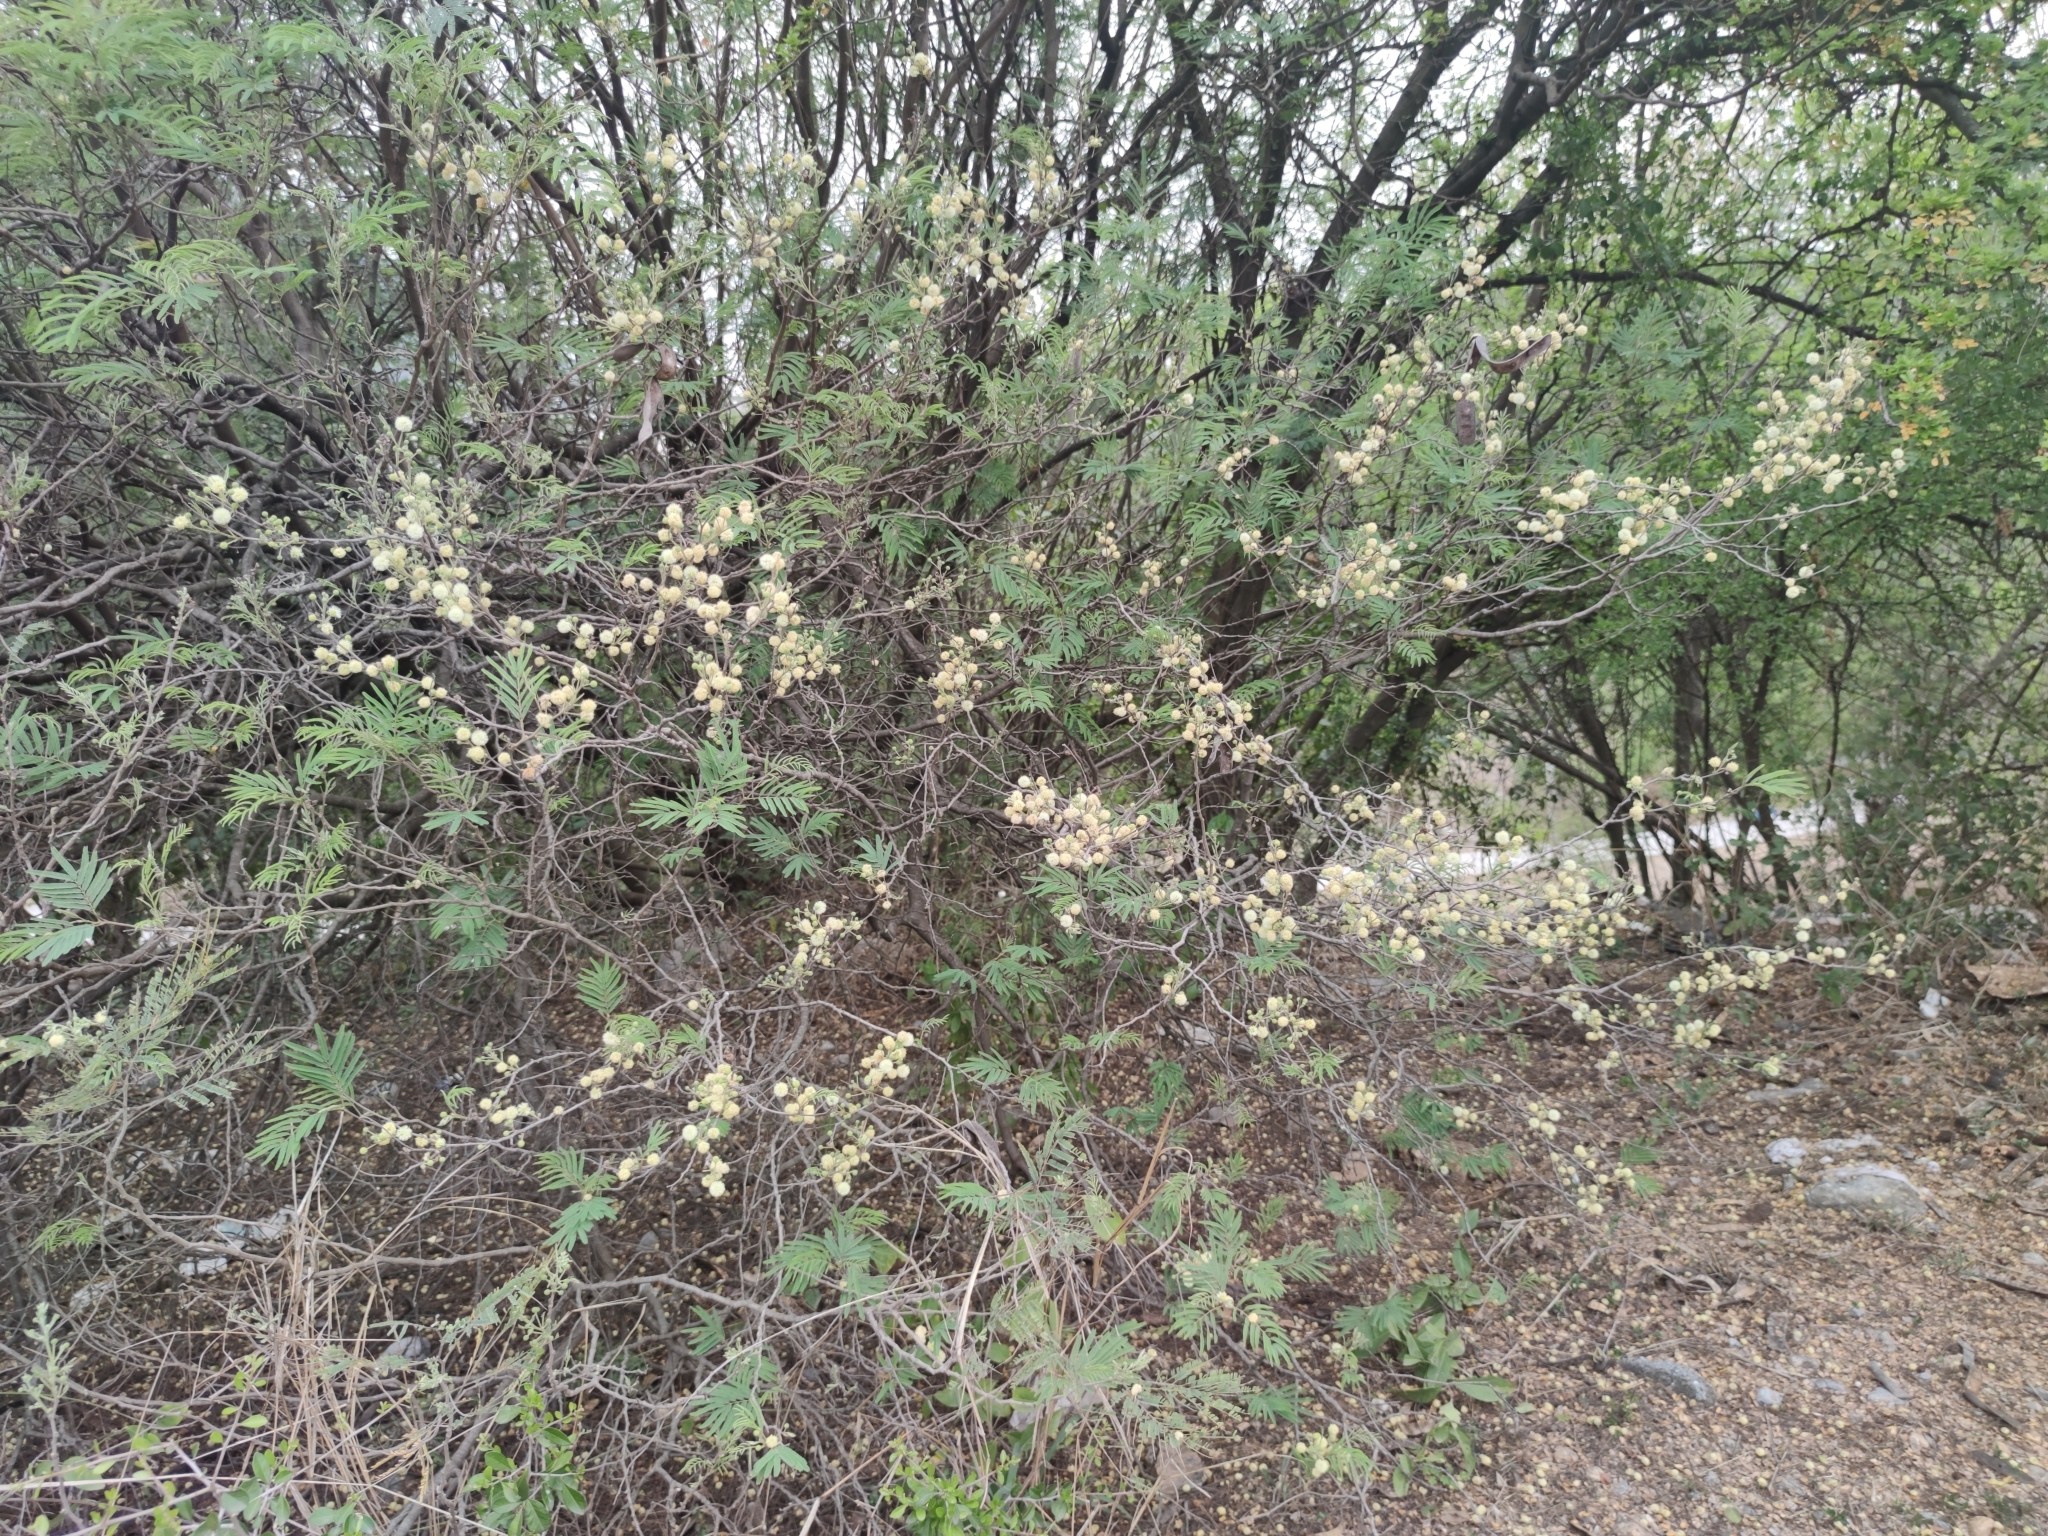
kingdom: Plantae
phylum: Tracheophyta
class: Magnoliopsida
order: Fabales
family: Fabaceae
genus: Senegalia
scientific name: Senegalia berlandieri
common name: Berlandier acacia
